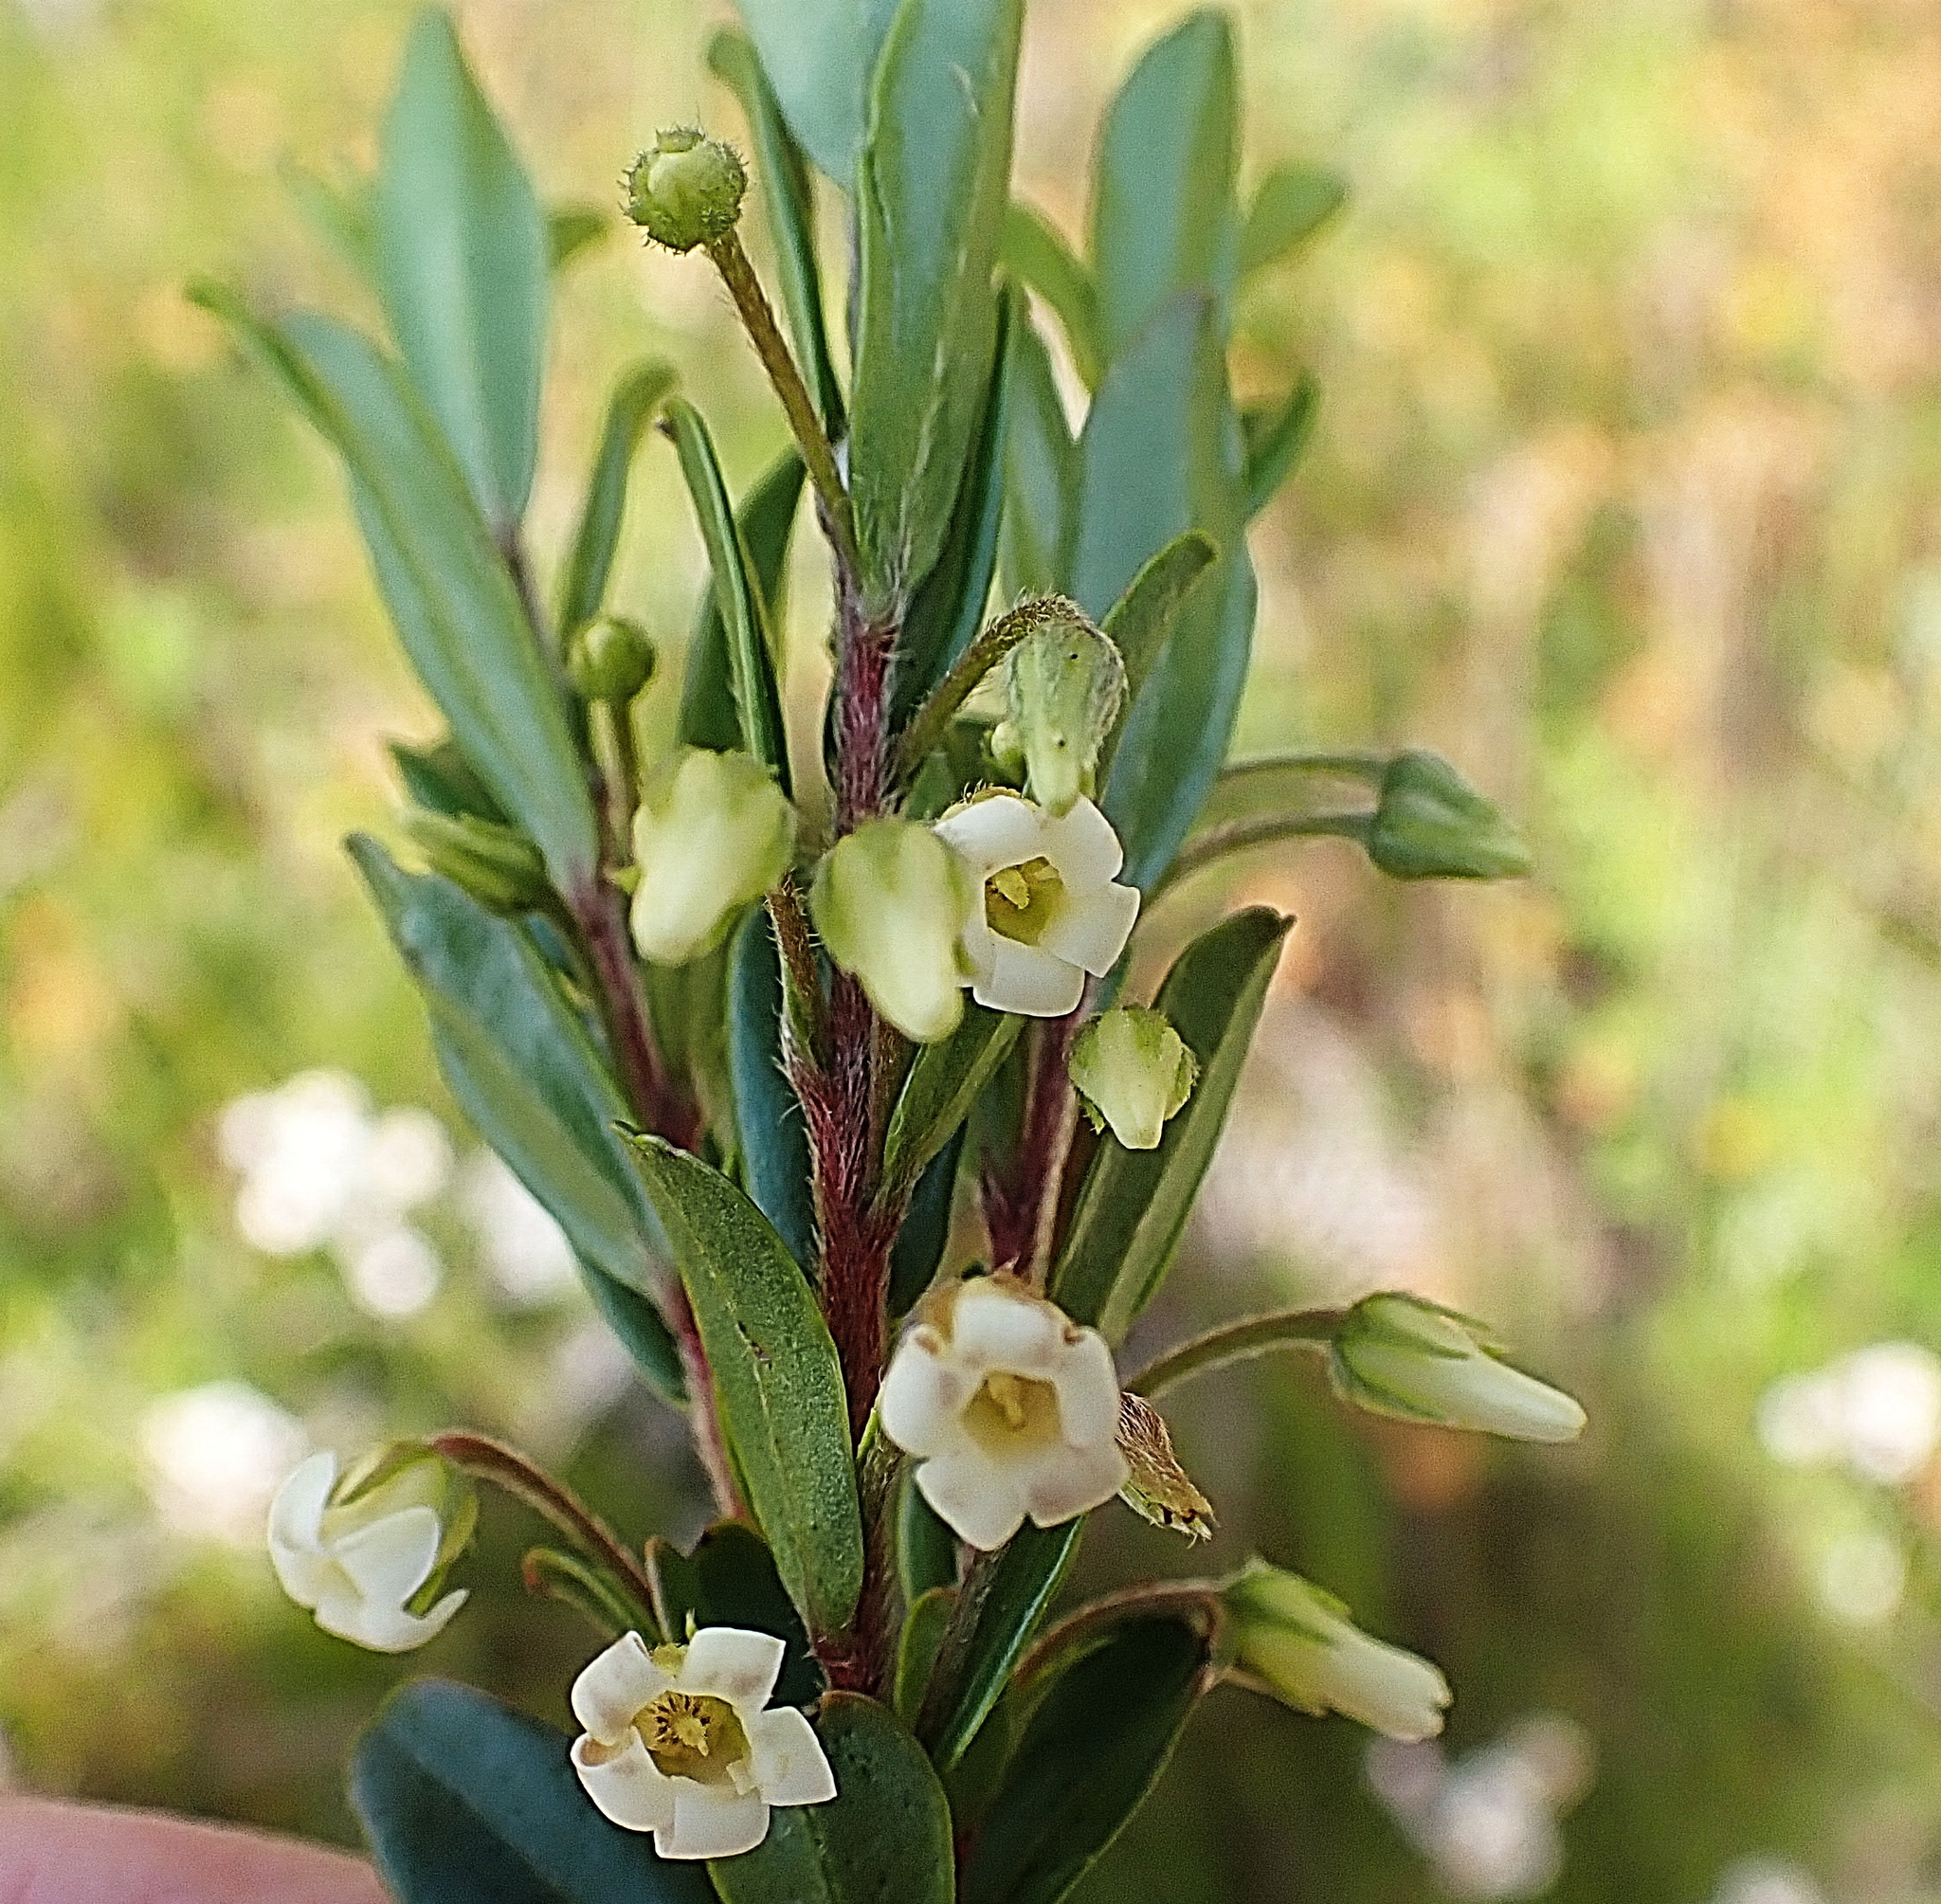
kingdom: Plantae
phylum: Tracheophyta
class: Magnoliopsida
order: Ericales
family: Ebenaceae
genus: Diospyros
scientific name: Diospyros glabra
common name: Fynbos star apple
